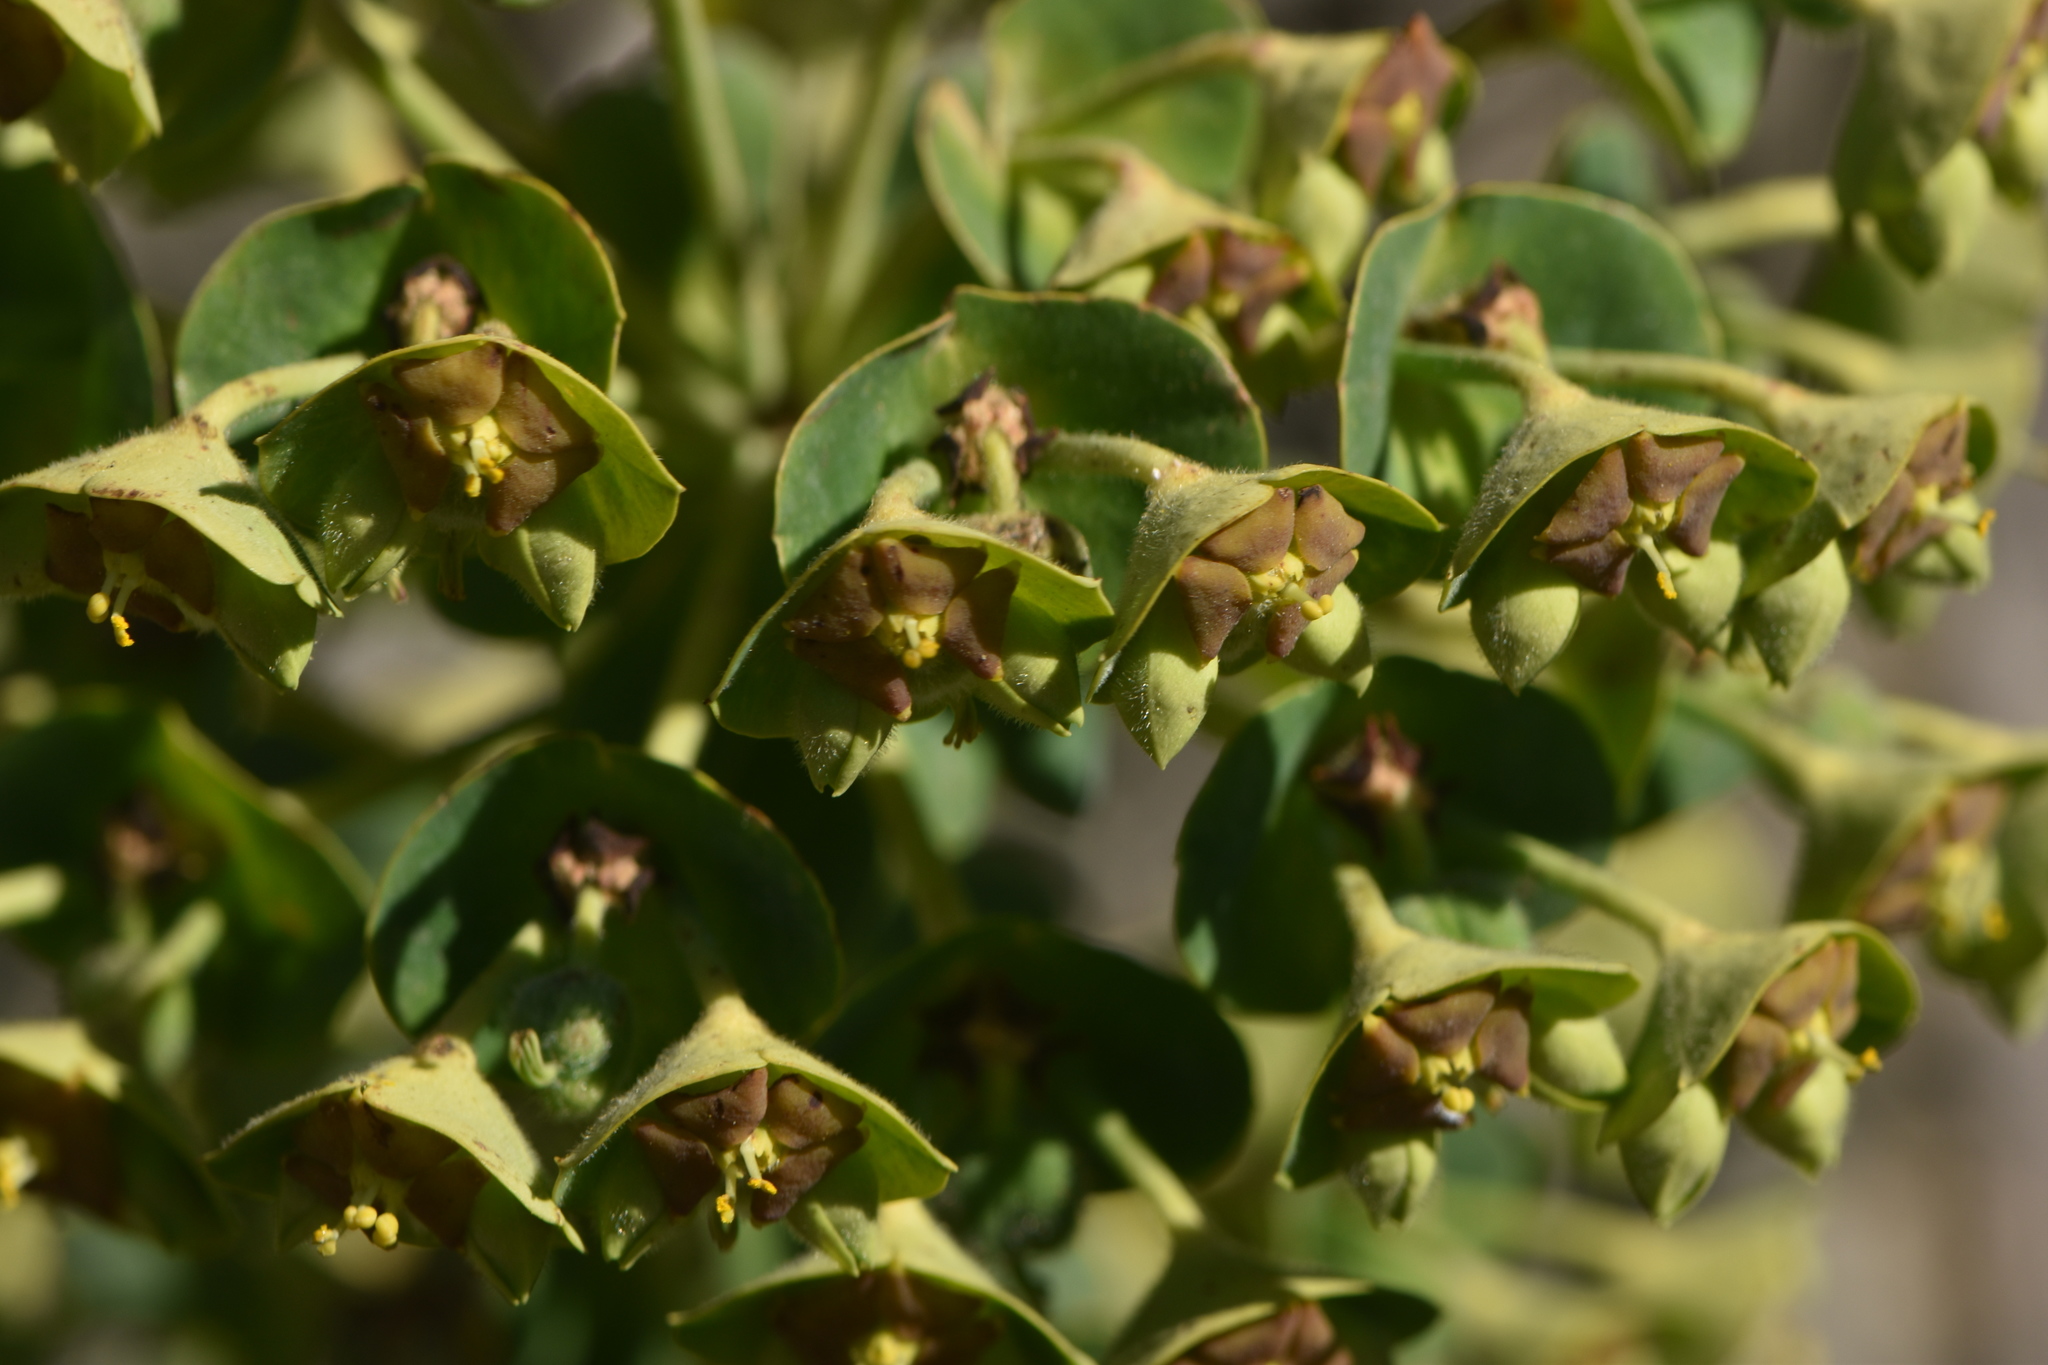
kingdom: Plantae
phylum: Tracheophyta
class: Magnoliopsida
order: Malpighiales
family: Euphorbiaceae
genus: Euphorbia
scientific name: Euphorbia characias
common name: Mediterranean spurge
